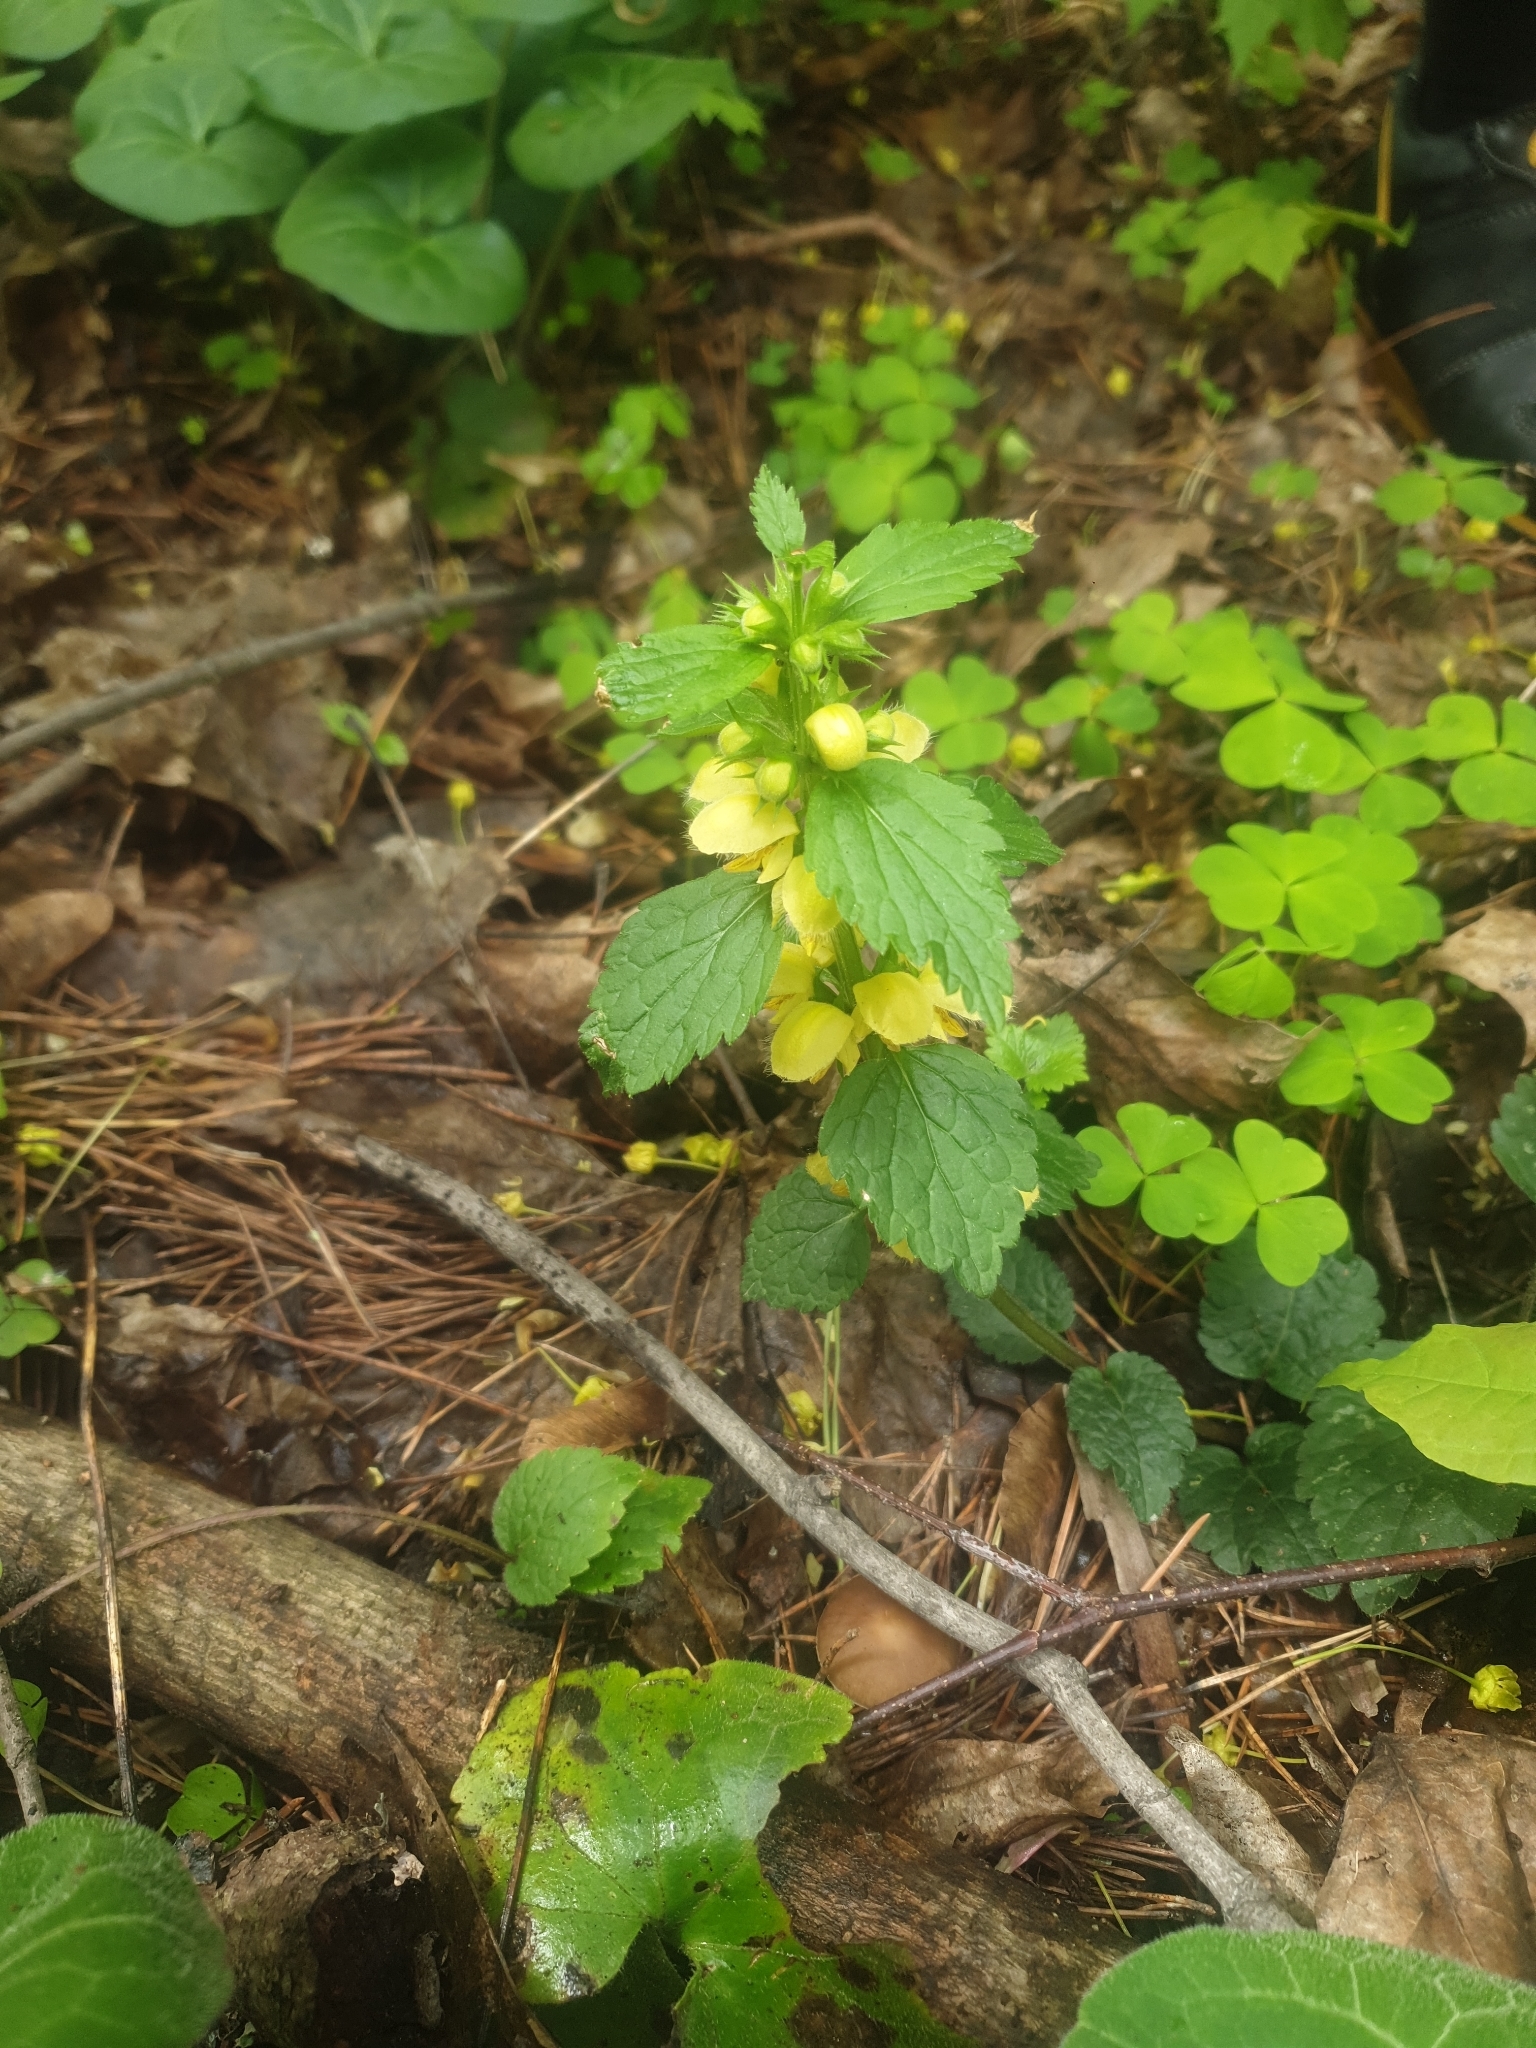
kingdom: Plantae
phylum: Tracheophyta
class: Magnoliopsida
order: Lamiales
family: Lamiaceae
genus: Lamium
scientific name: Lamium galeobdolon
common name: Yellow archangel
